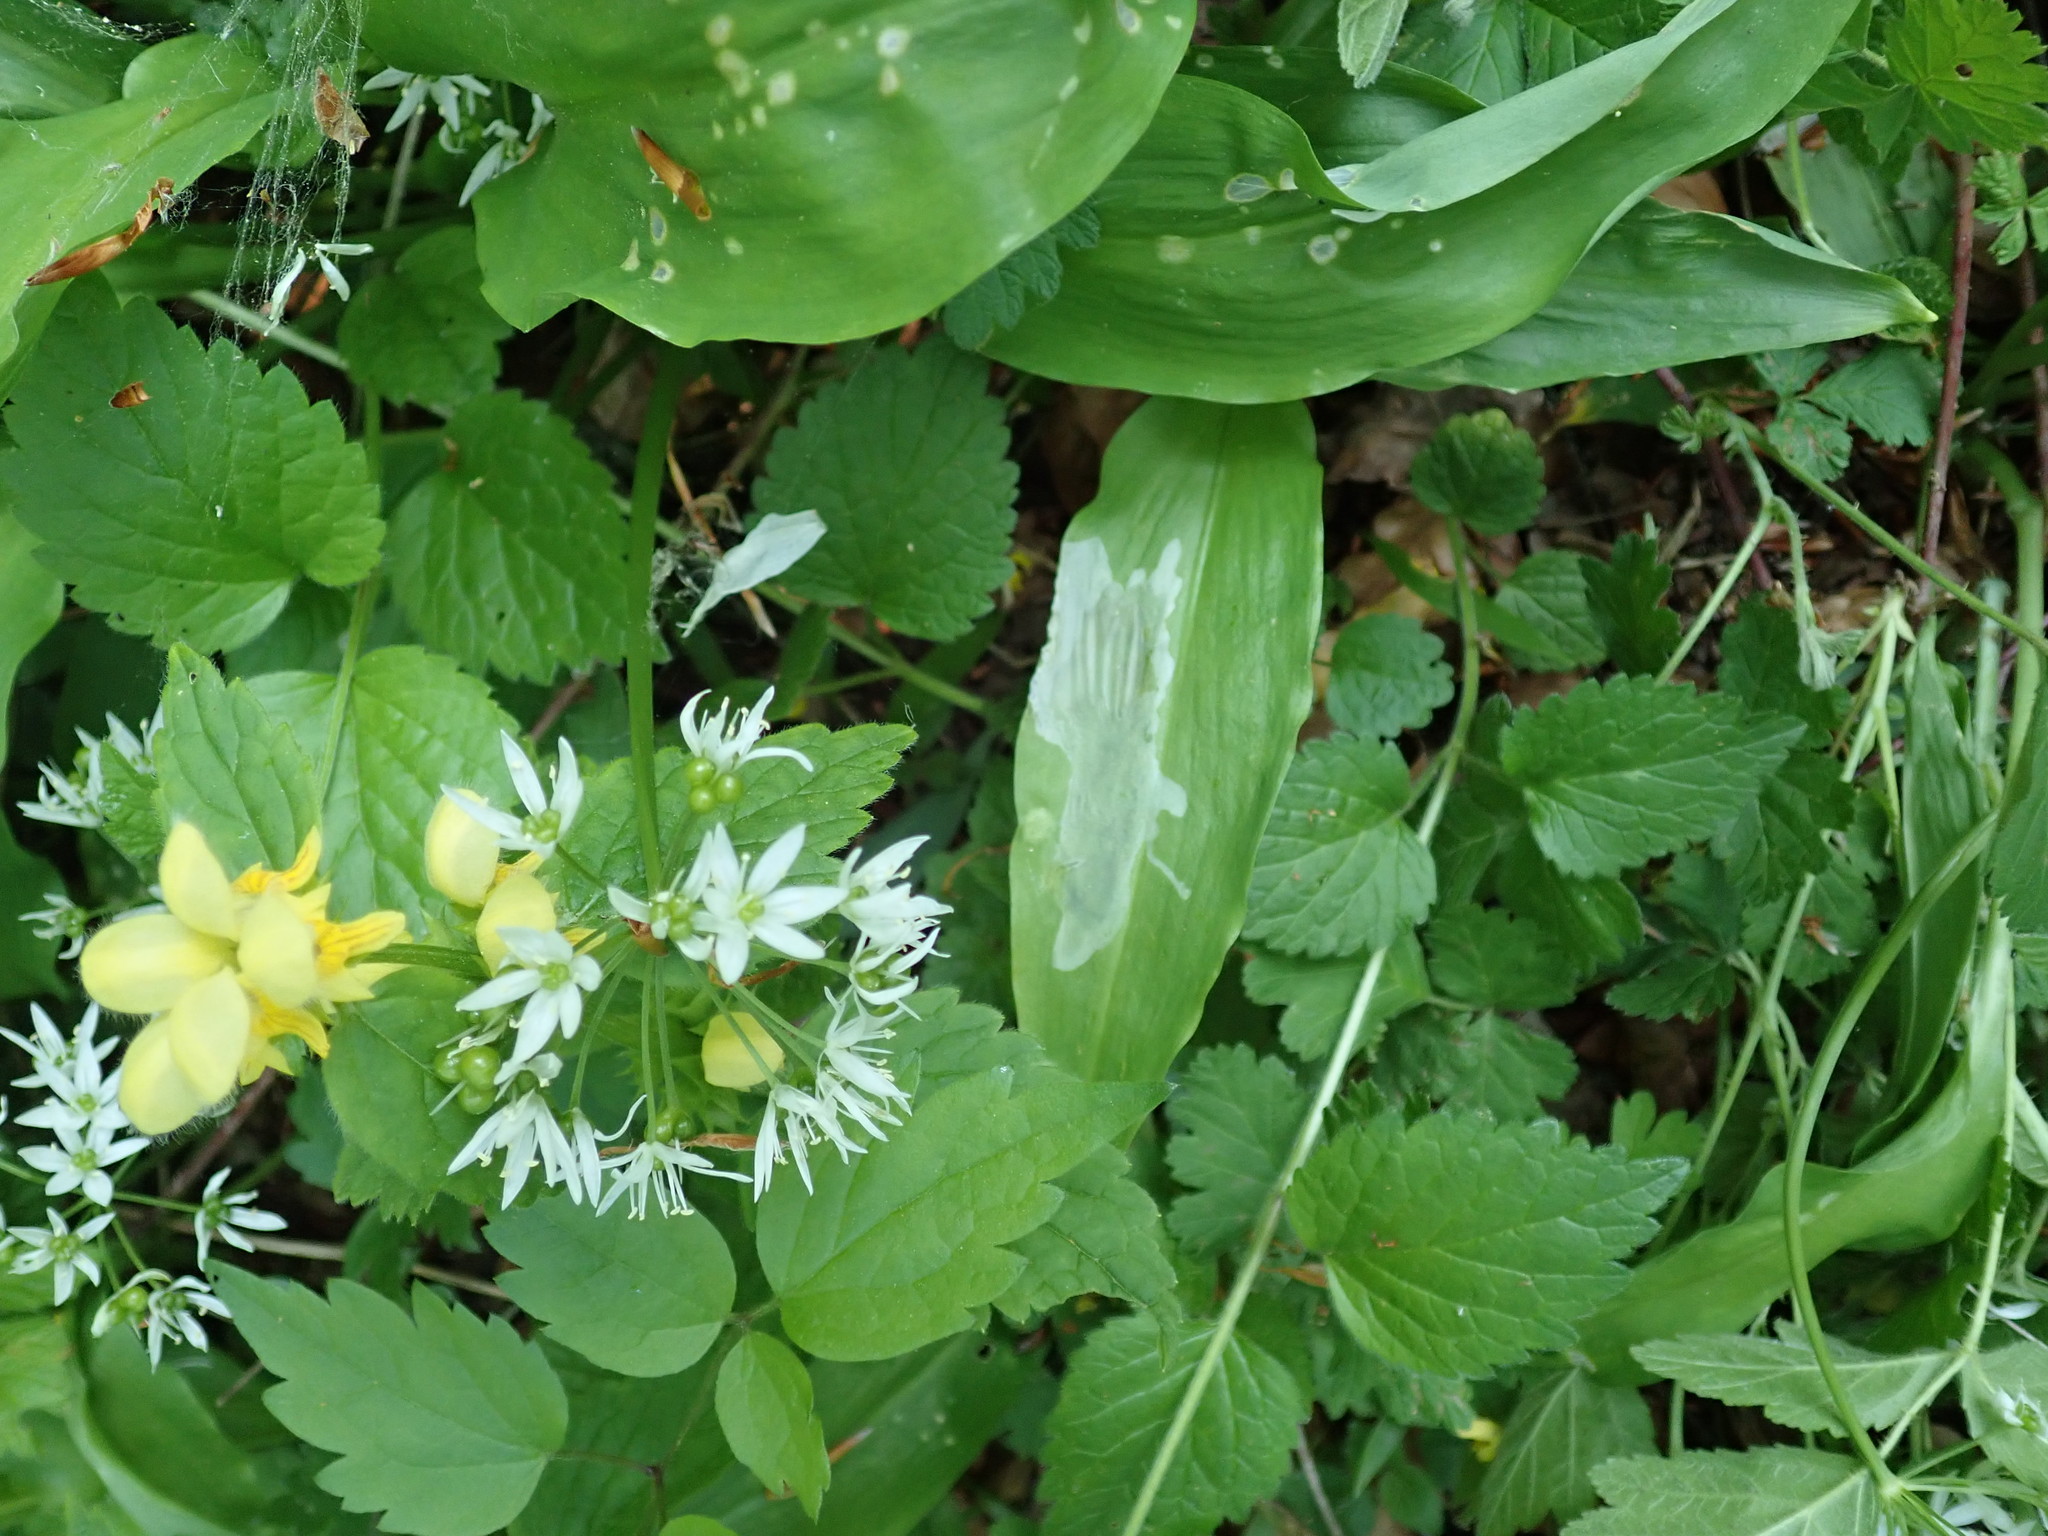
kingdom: Plantae
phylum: Tracheophyta
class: Liliopsida
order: Asparagales
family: Amaryllidaceae
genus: Allium
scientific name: Allium ursinum
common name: Ramsons
